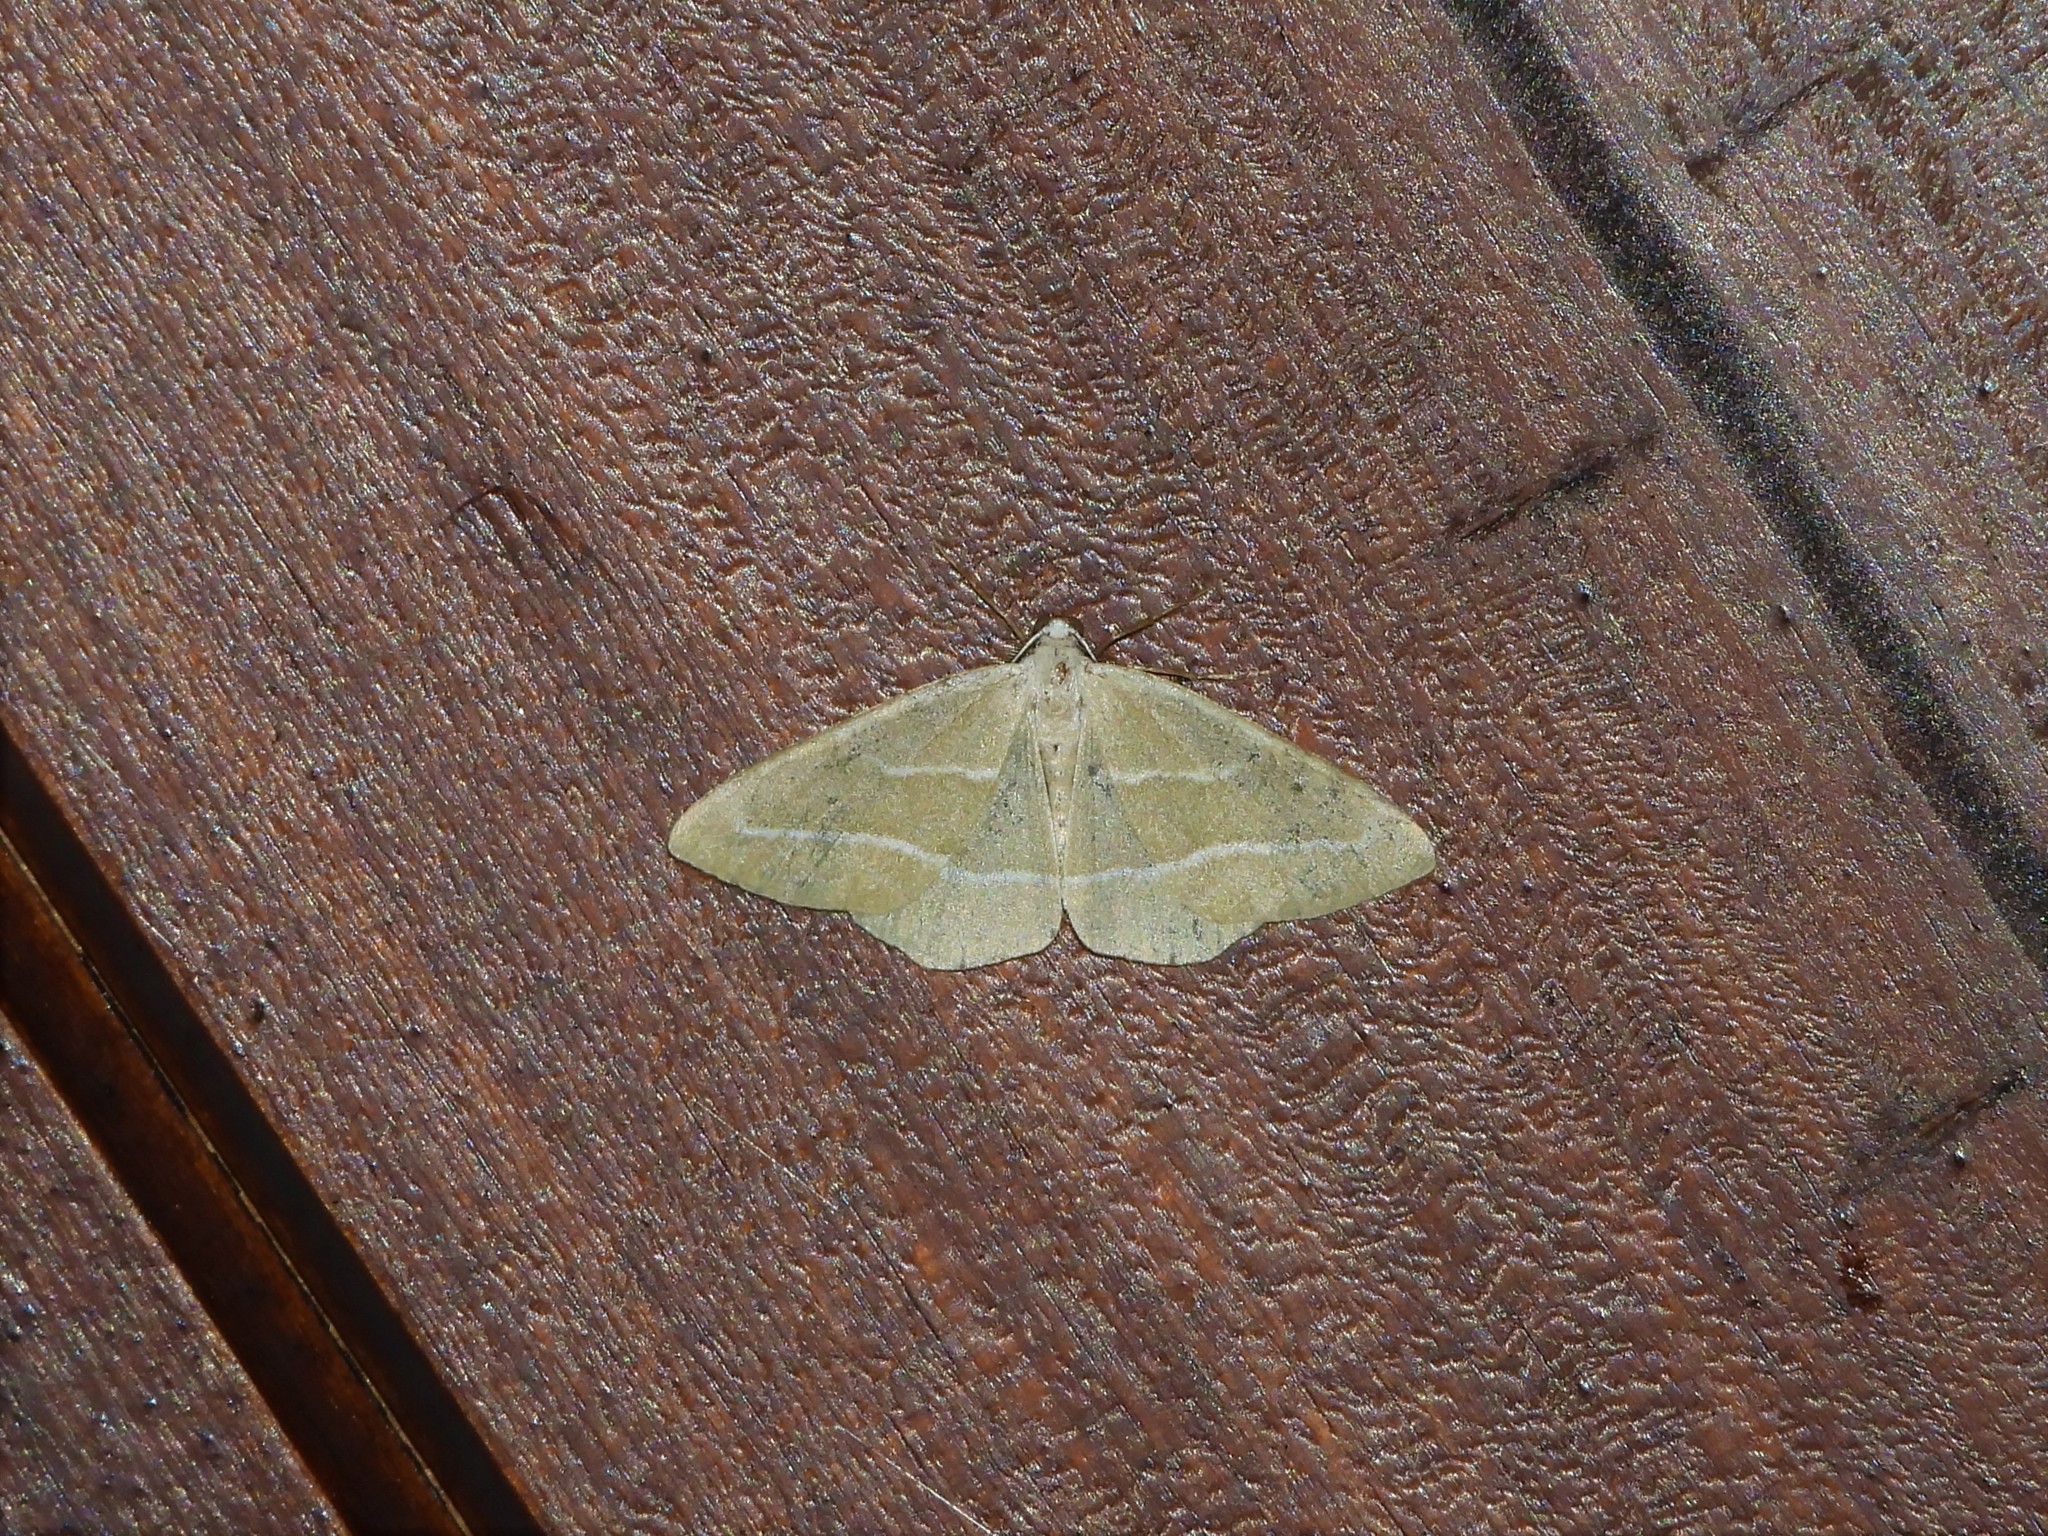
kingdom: Animalia
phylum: Arthropoda
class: Insecta
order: Lepidoptera
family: Geometridae
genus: Hylaea
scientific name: Hylaea fasciaria
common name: Barred red
